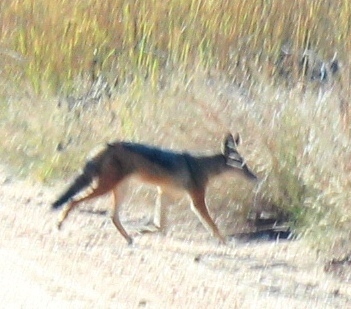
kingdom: Animalia
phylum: Chordata
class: Mammalia
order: Carnivora
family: Canidae
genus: Lupulella
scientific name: Lupulella
